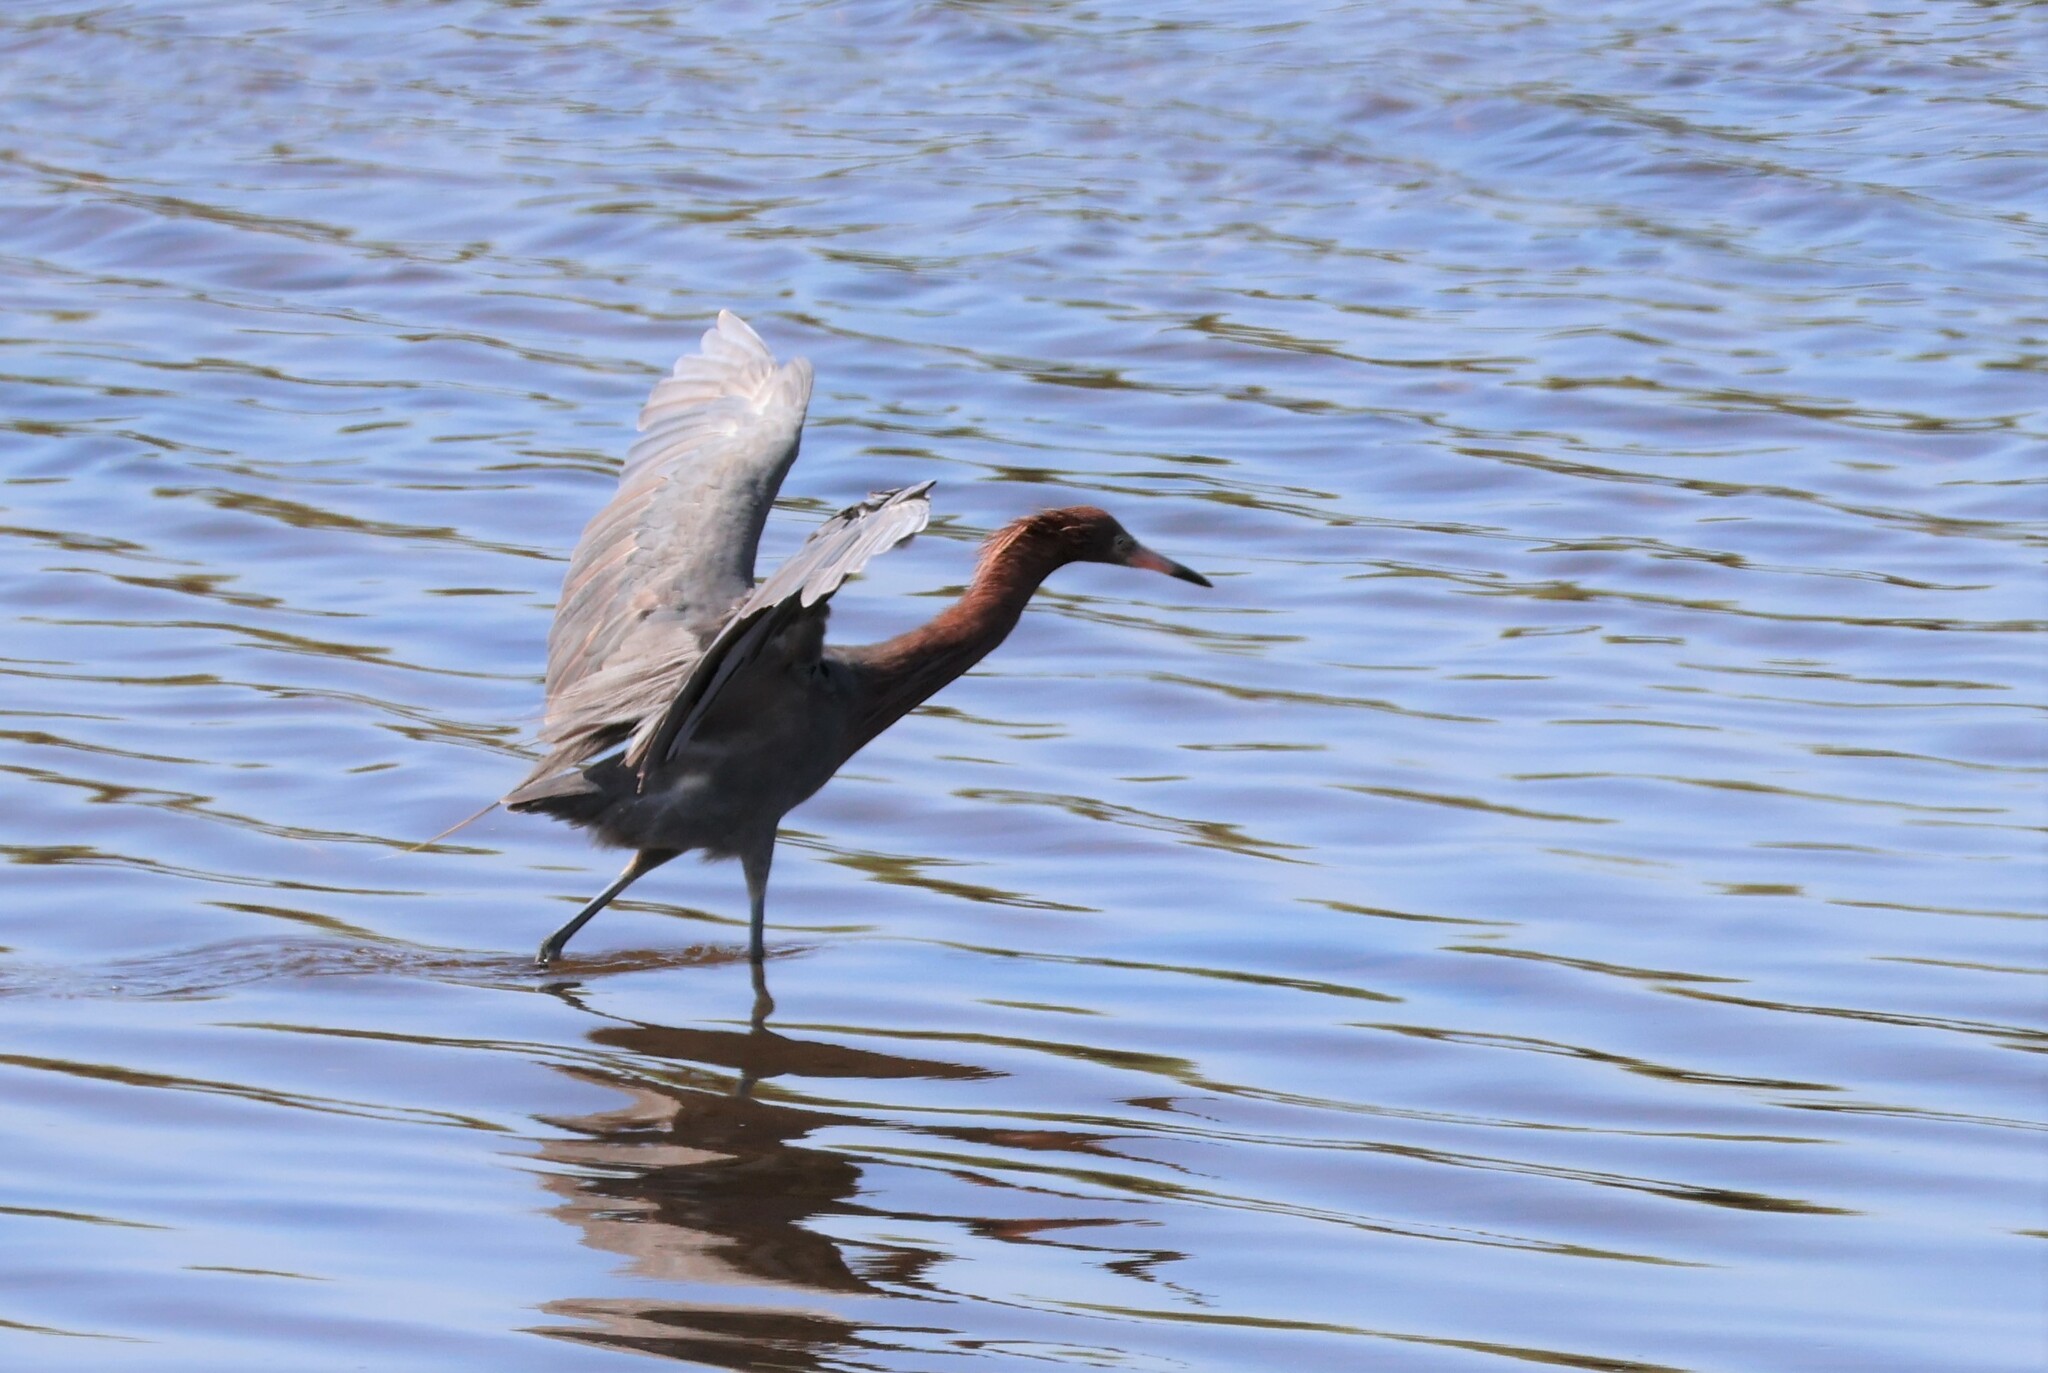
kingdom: Animalia
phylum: Chordata
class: Aves
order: Pelecaniformes
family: Ardeidae
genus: Egretta
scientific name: Egretta rufescens
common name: Reddish egret
